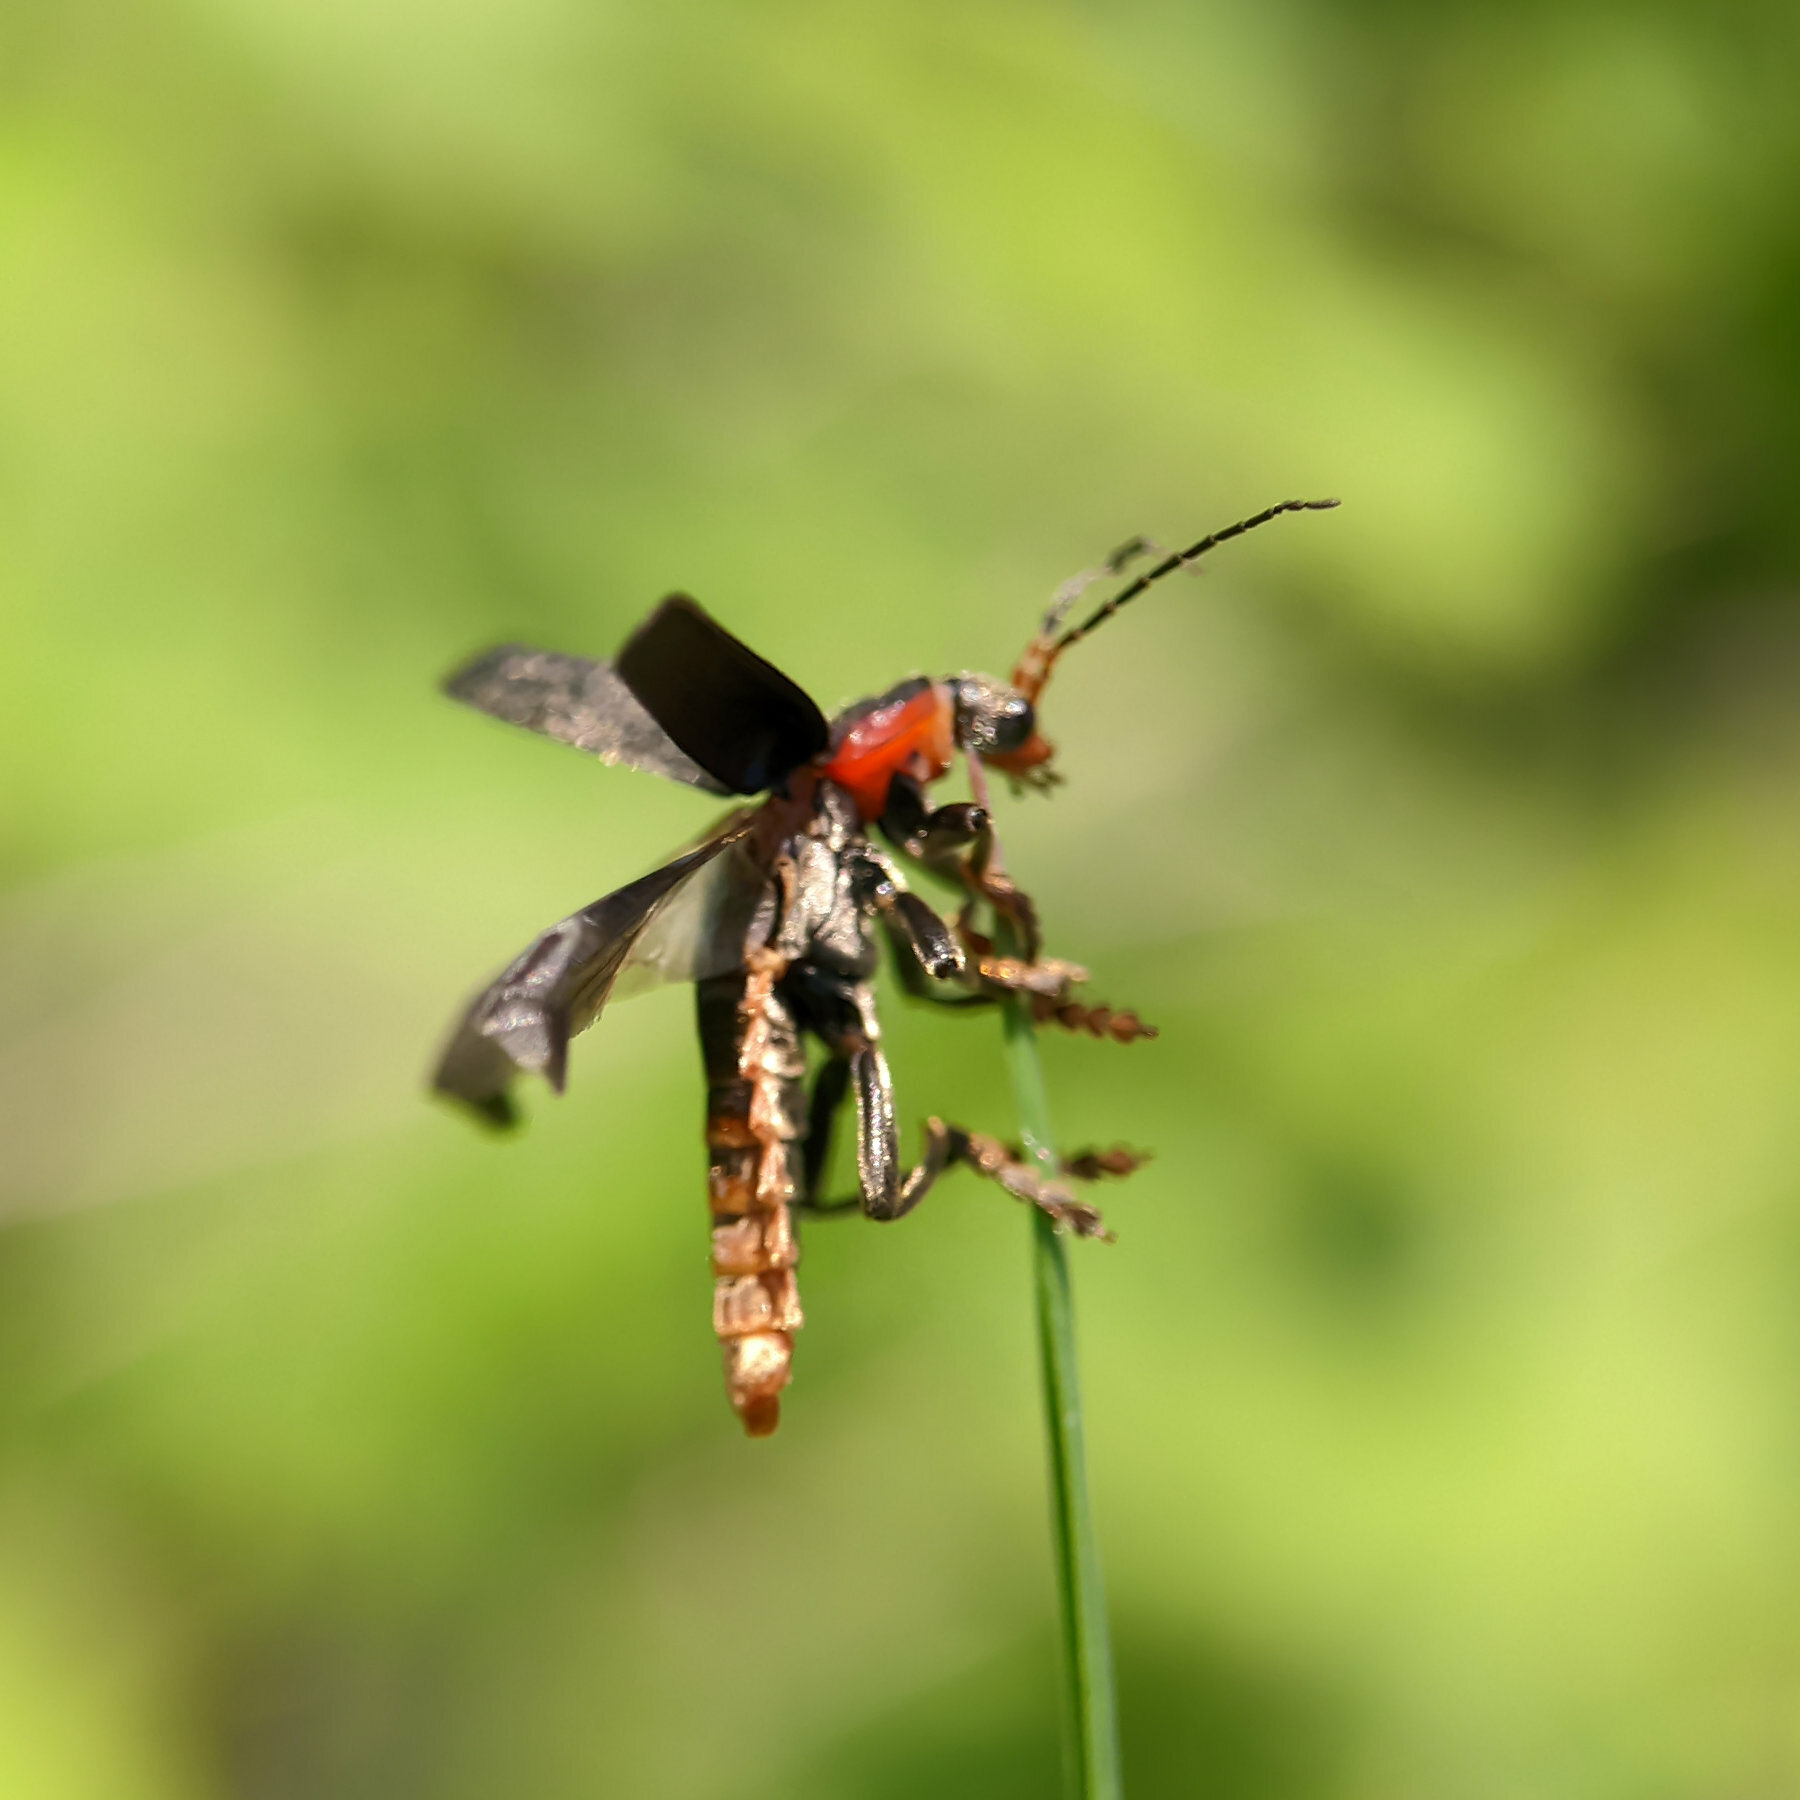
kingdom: Animalia
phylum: Arthropoda
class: Insecta
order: Coleoptera
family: Cantharidae
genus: Cantharis
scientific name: Cantharis fusca
